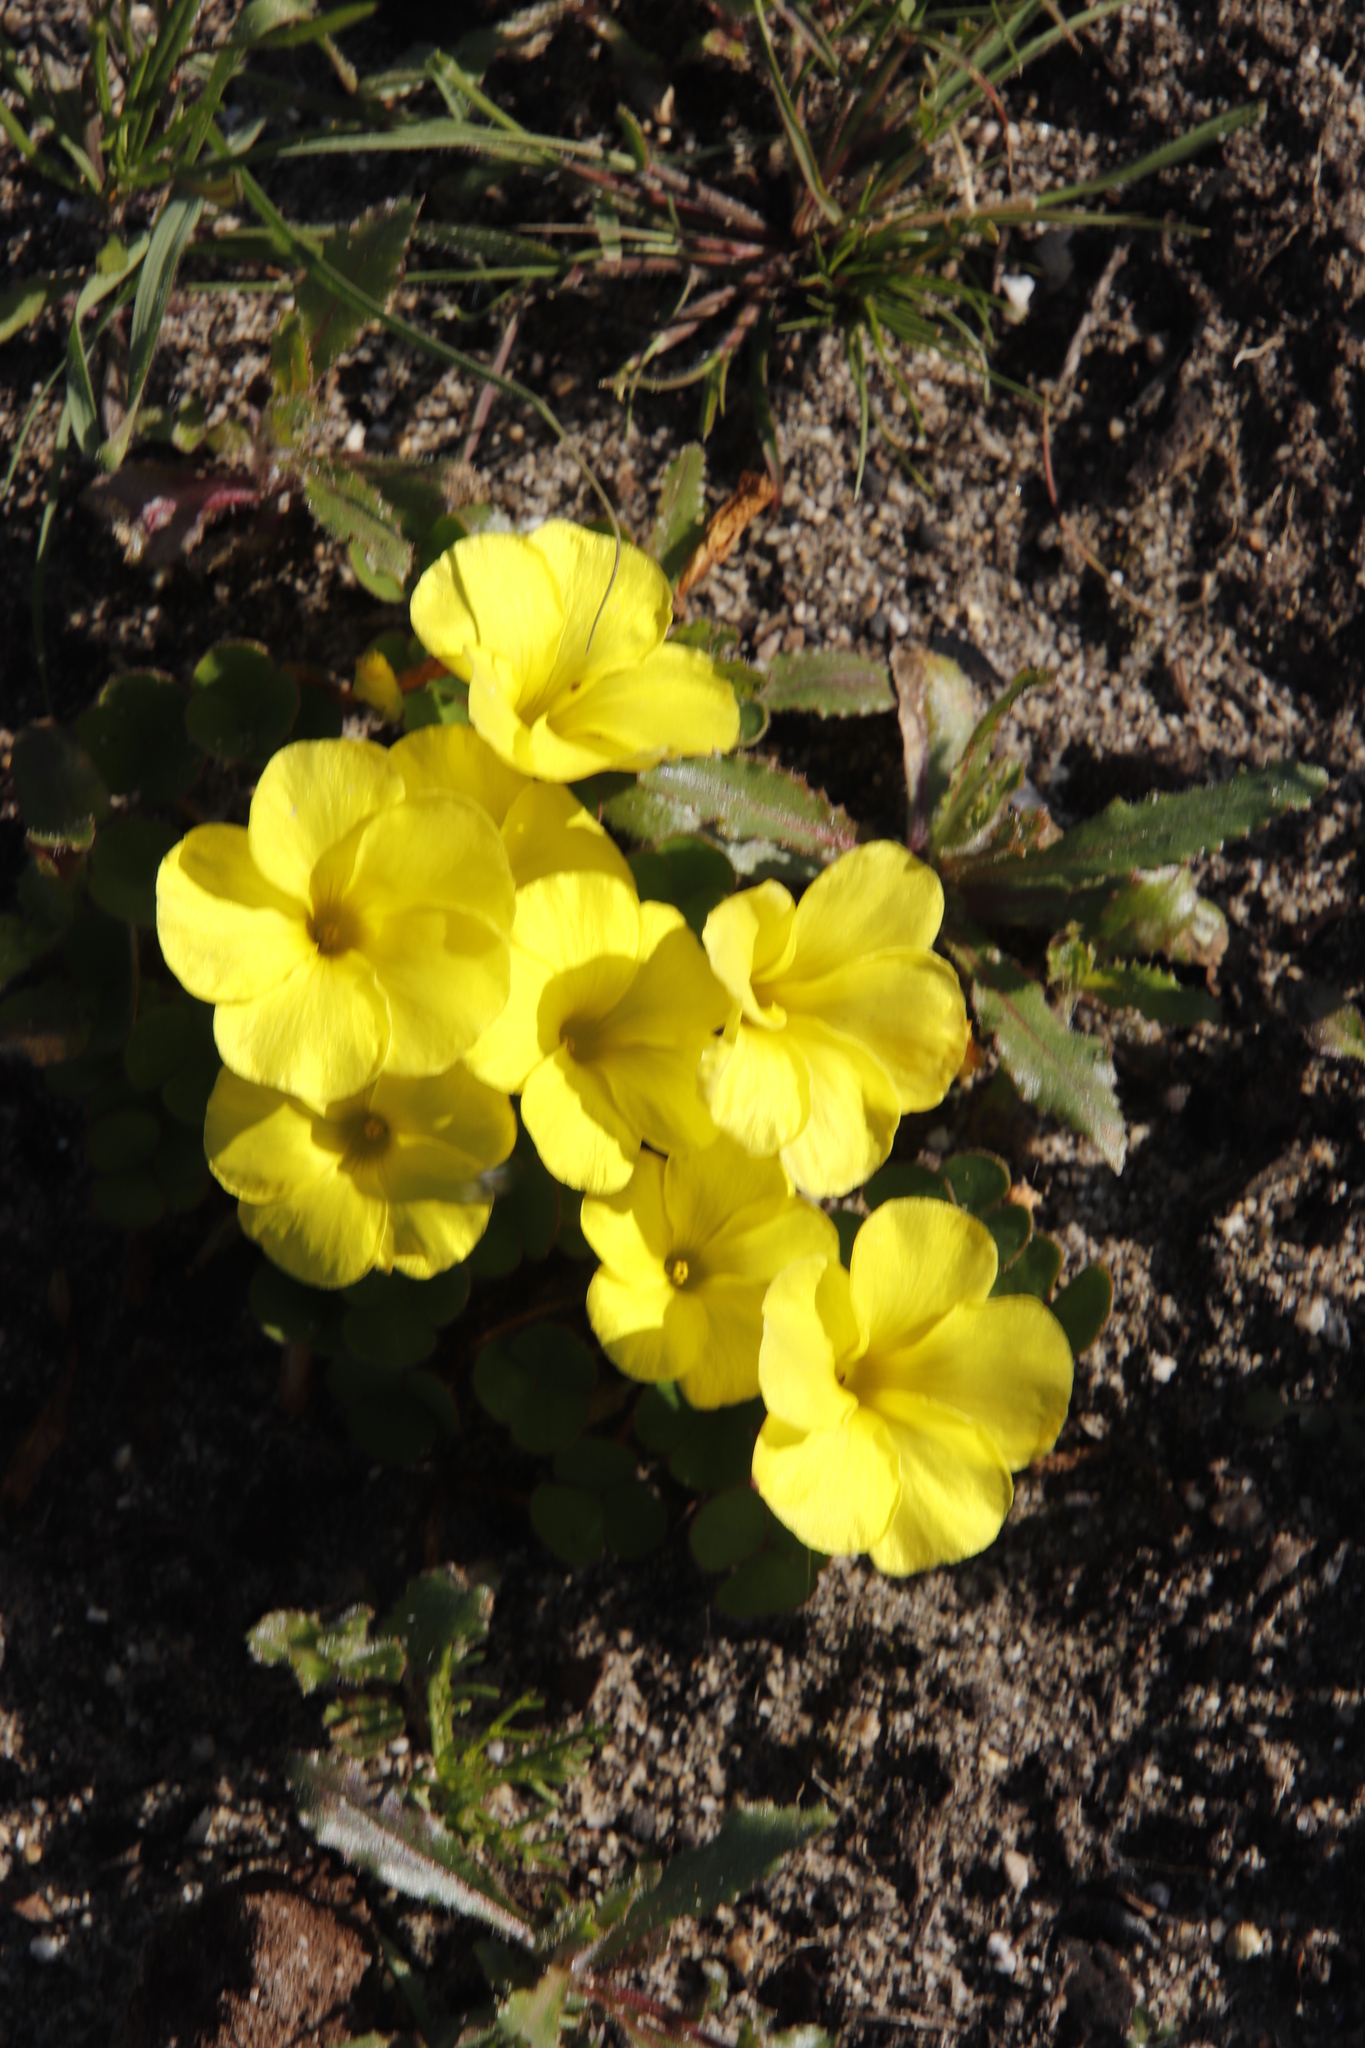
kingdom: Plantae
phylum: Tracheophyta
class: Magnoliopsida
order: Oxalidales
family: Oxalidaceae
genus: Oxalis
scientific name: Oxalis luteola
